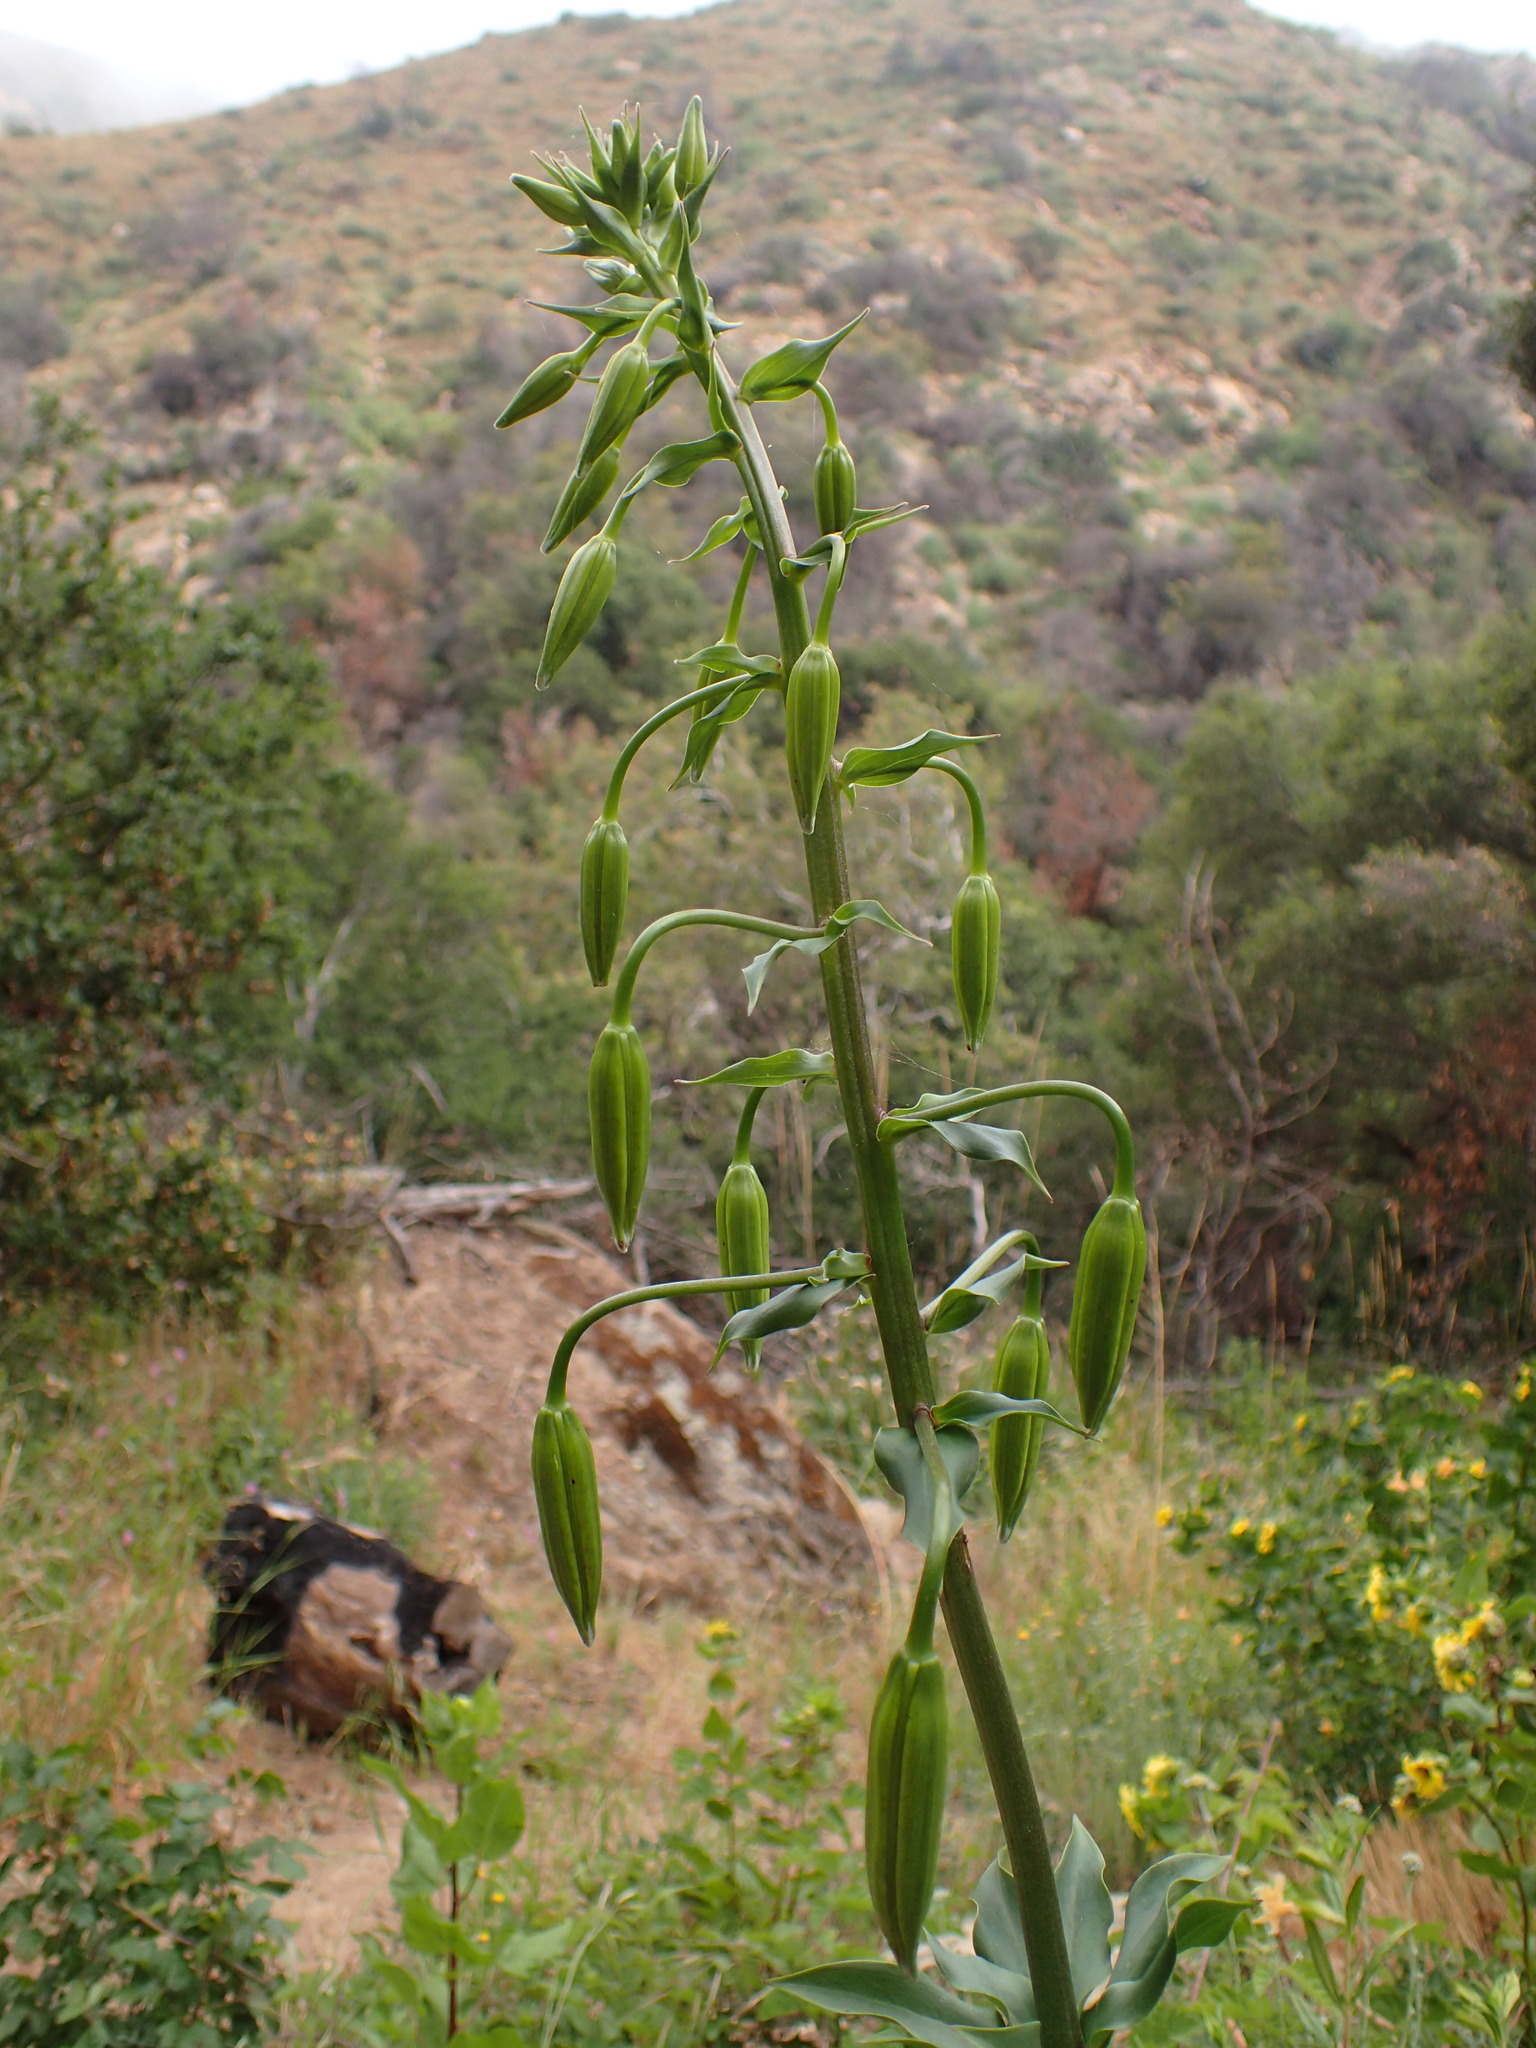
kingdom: Plantae
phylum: Tracheophyta
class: Liliopsida
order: Liliales
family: Liliaceae
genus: Lilium
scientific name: Lilium humboldtii
